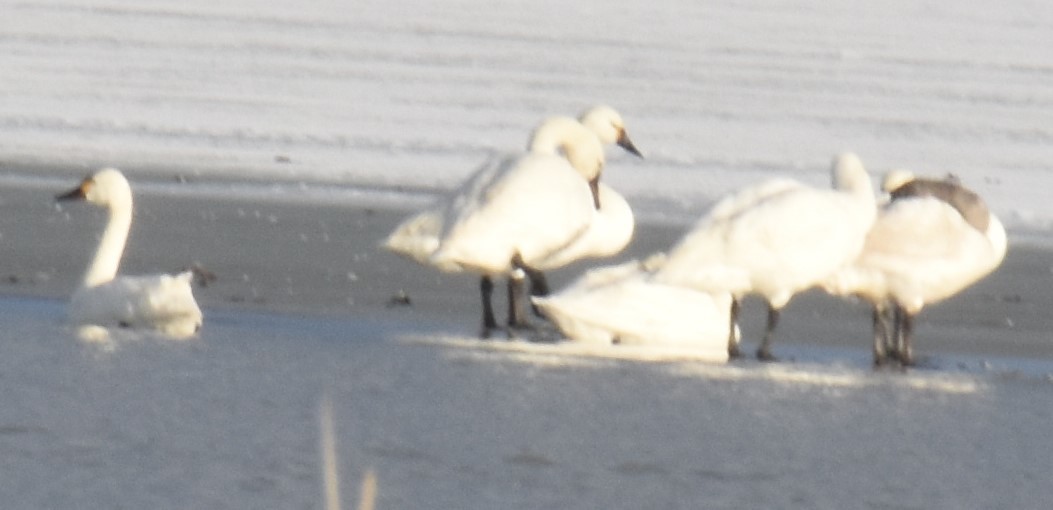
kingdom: Animalia
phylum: Chordata
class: Aves
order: Anseriformes
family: Anatidae
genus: Cygnus
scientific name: Cygnus columbianus
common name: Tundra swan
